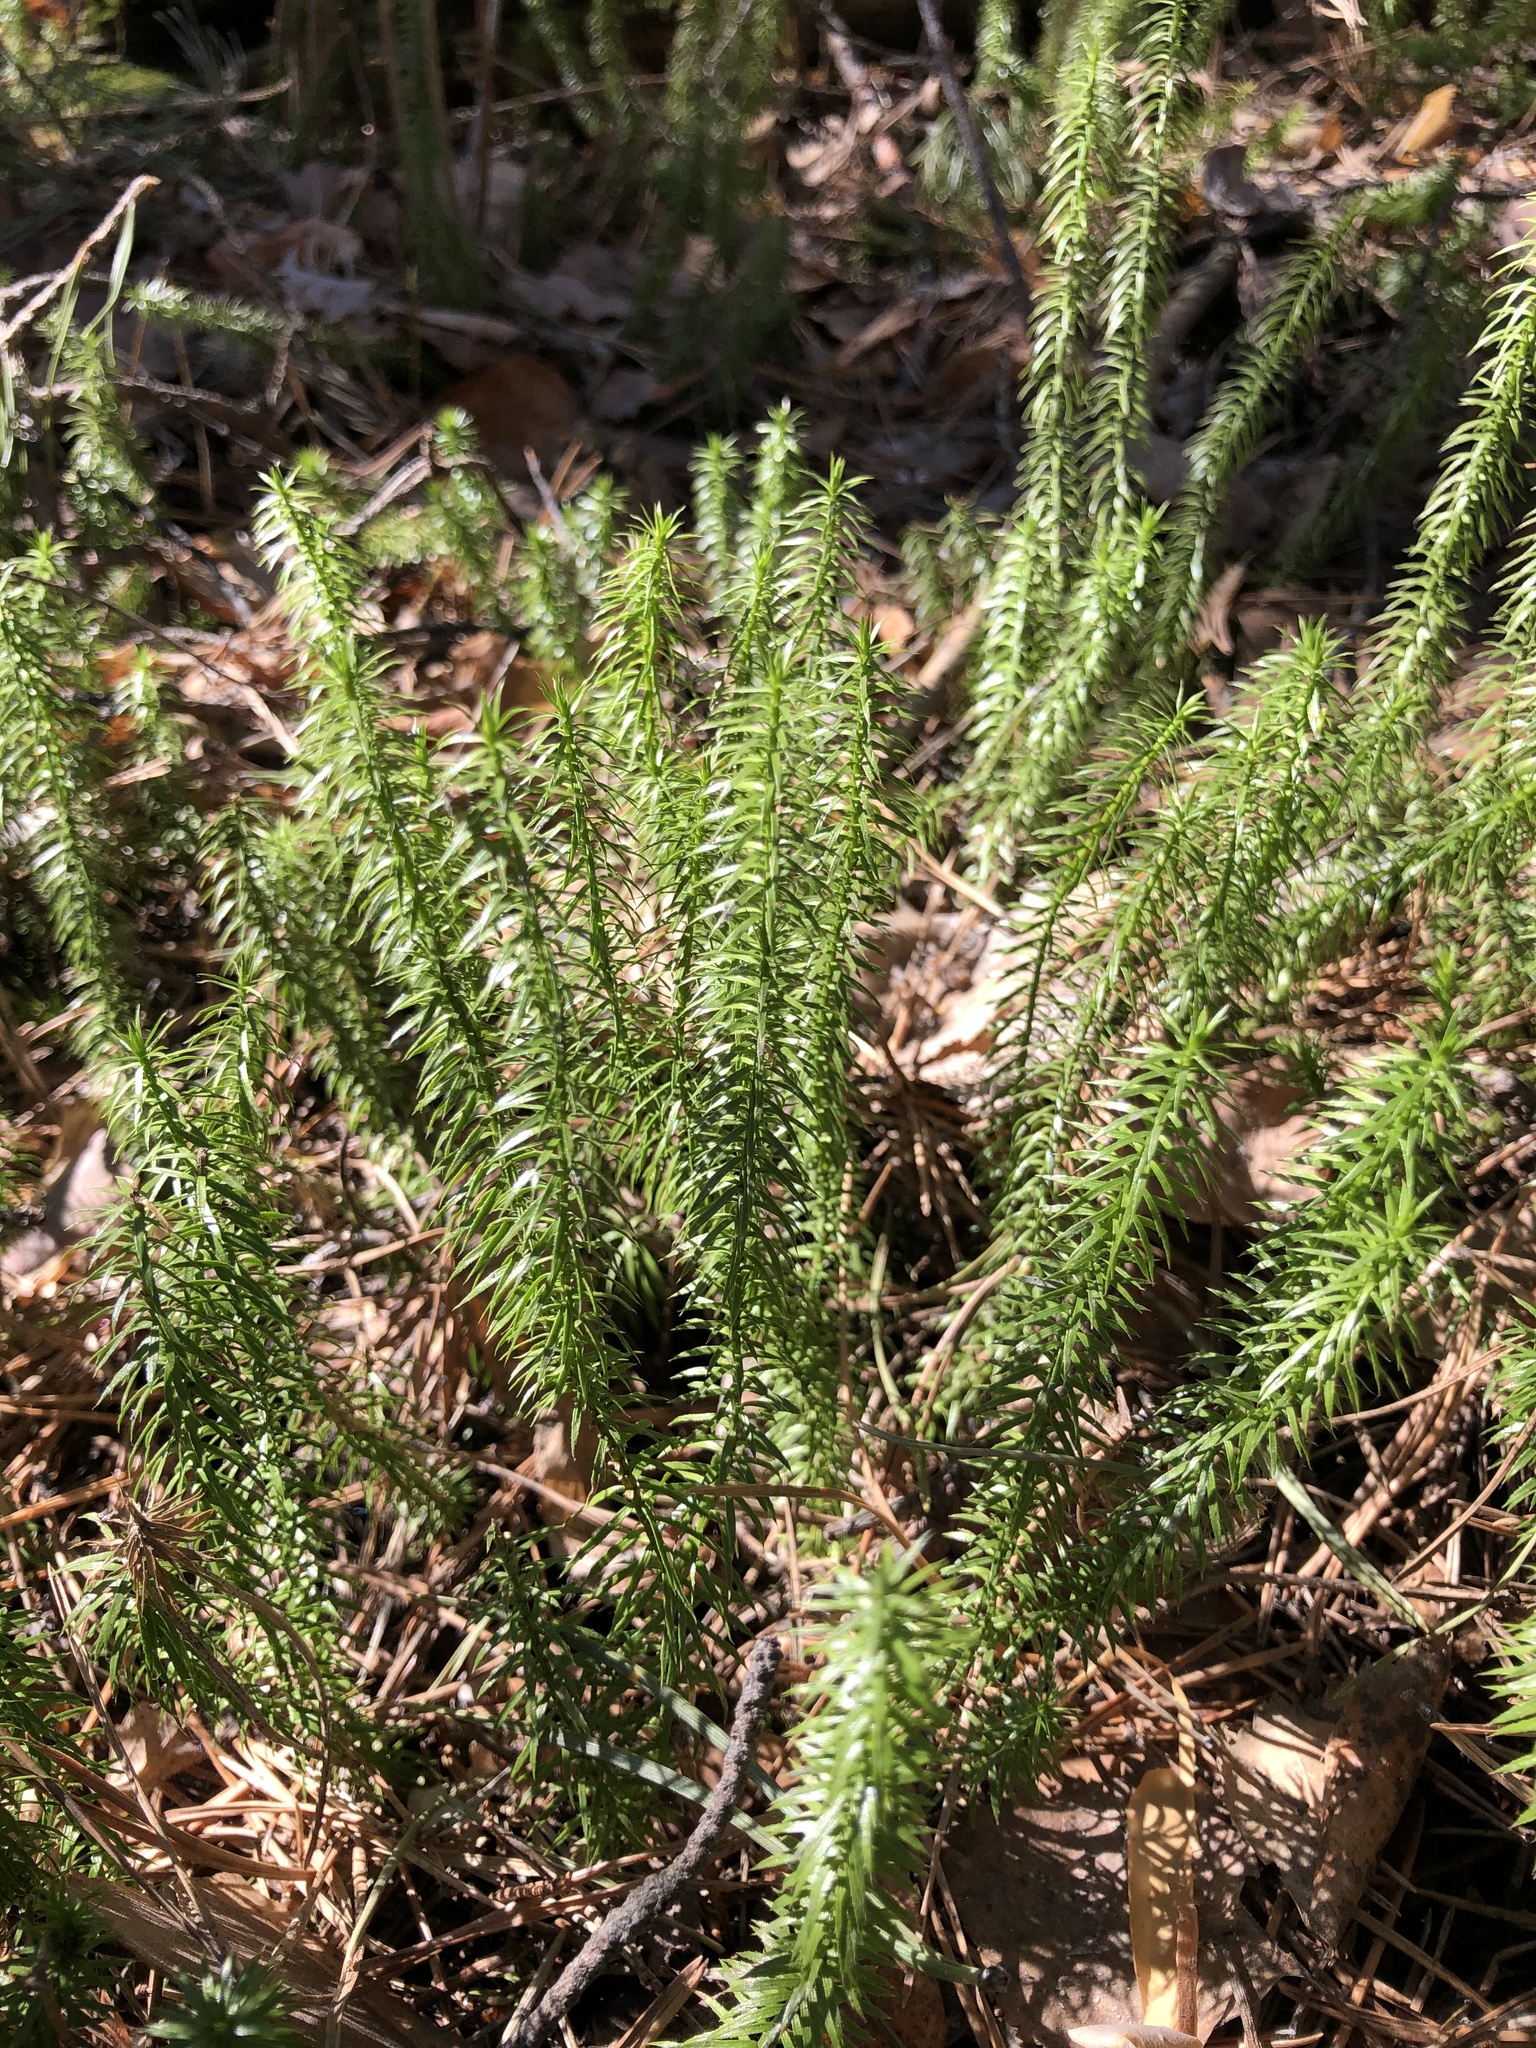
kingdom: Plantae
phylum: Tracheophyta
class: Lycopodiopsida
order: Lycopodiales
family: Lycopodiaceae
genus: Spinulum
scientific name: Spinulum annotinum
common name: Interrupted club-moss
